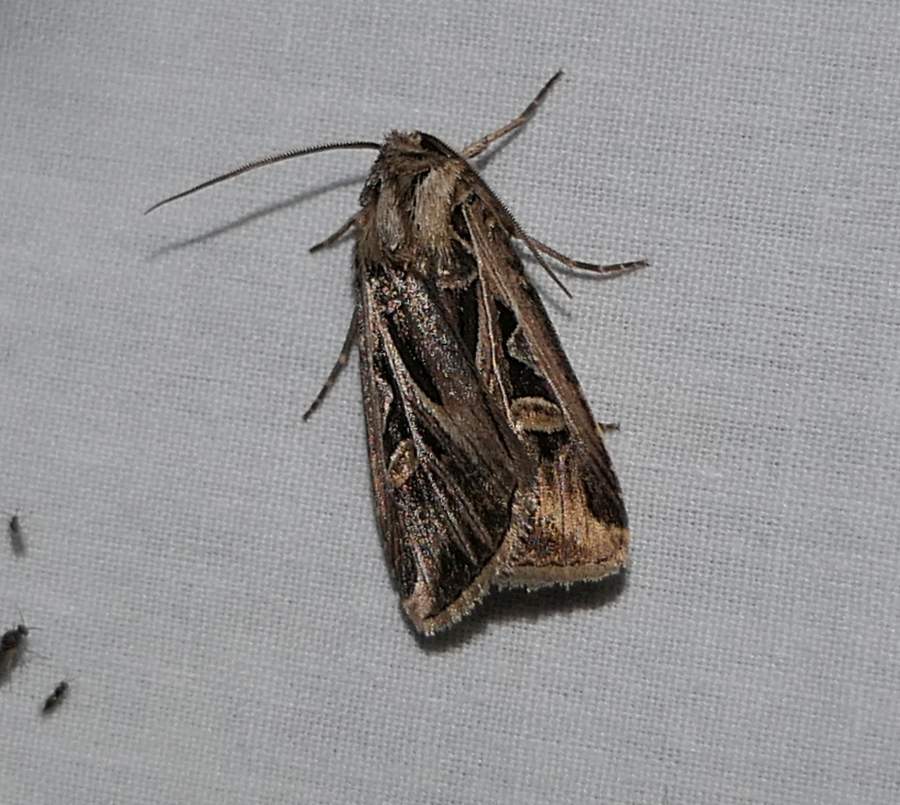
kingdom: Animalia
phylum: Arthropoda
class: Insecta
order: Lepidoptera
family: Noctuidae
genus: Feltia
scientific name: Feltia jaculifera
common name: Dingy cutworm moth
